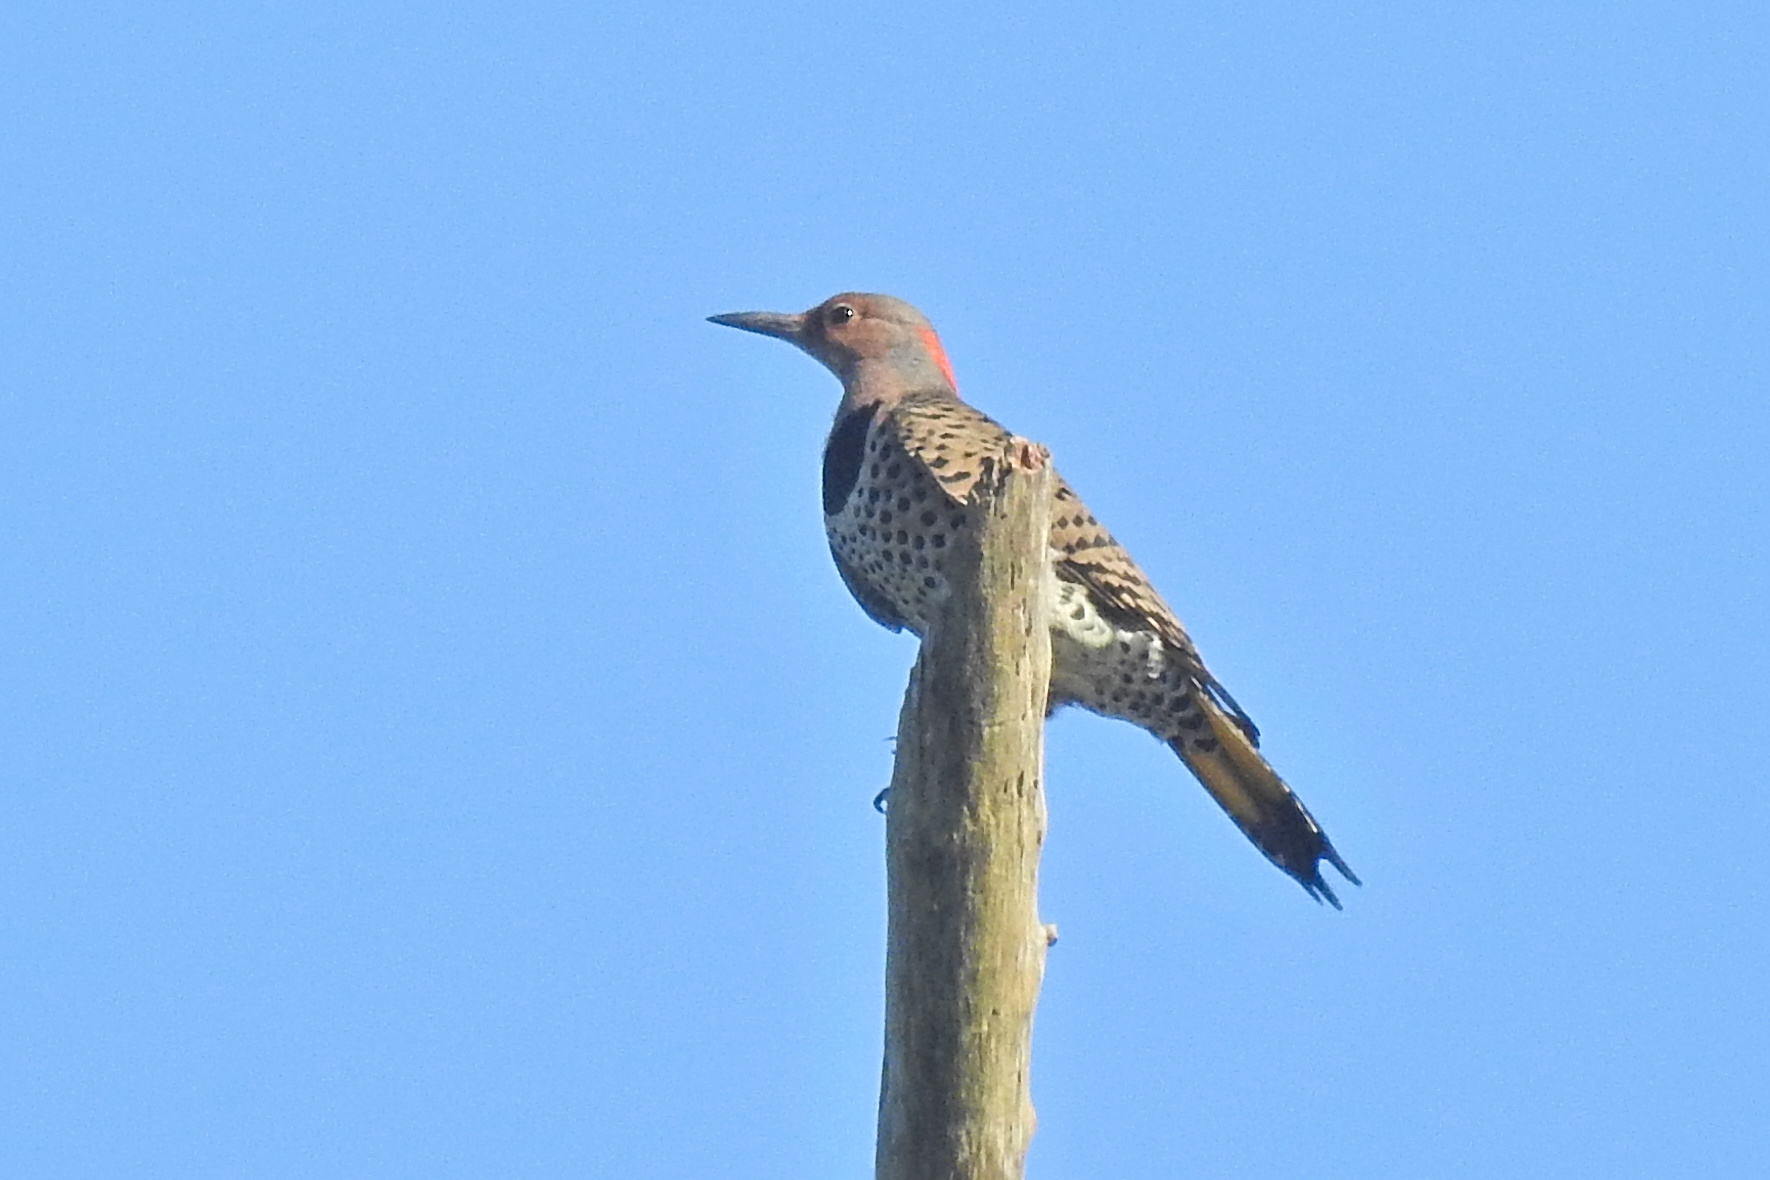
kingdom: Animalia
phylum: Chordata
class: Aves
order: Piciformes
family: Picidae
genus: Colaptes
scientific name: Colaptes auratus
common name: Northern flicker
